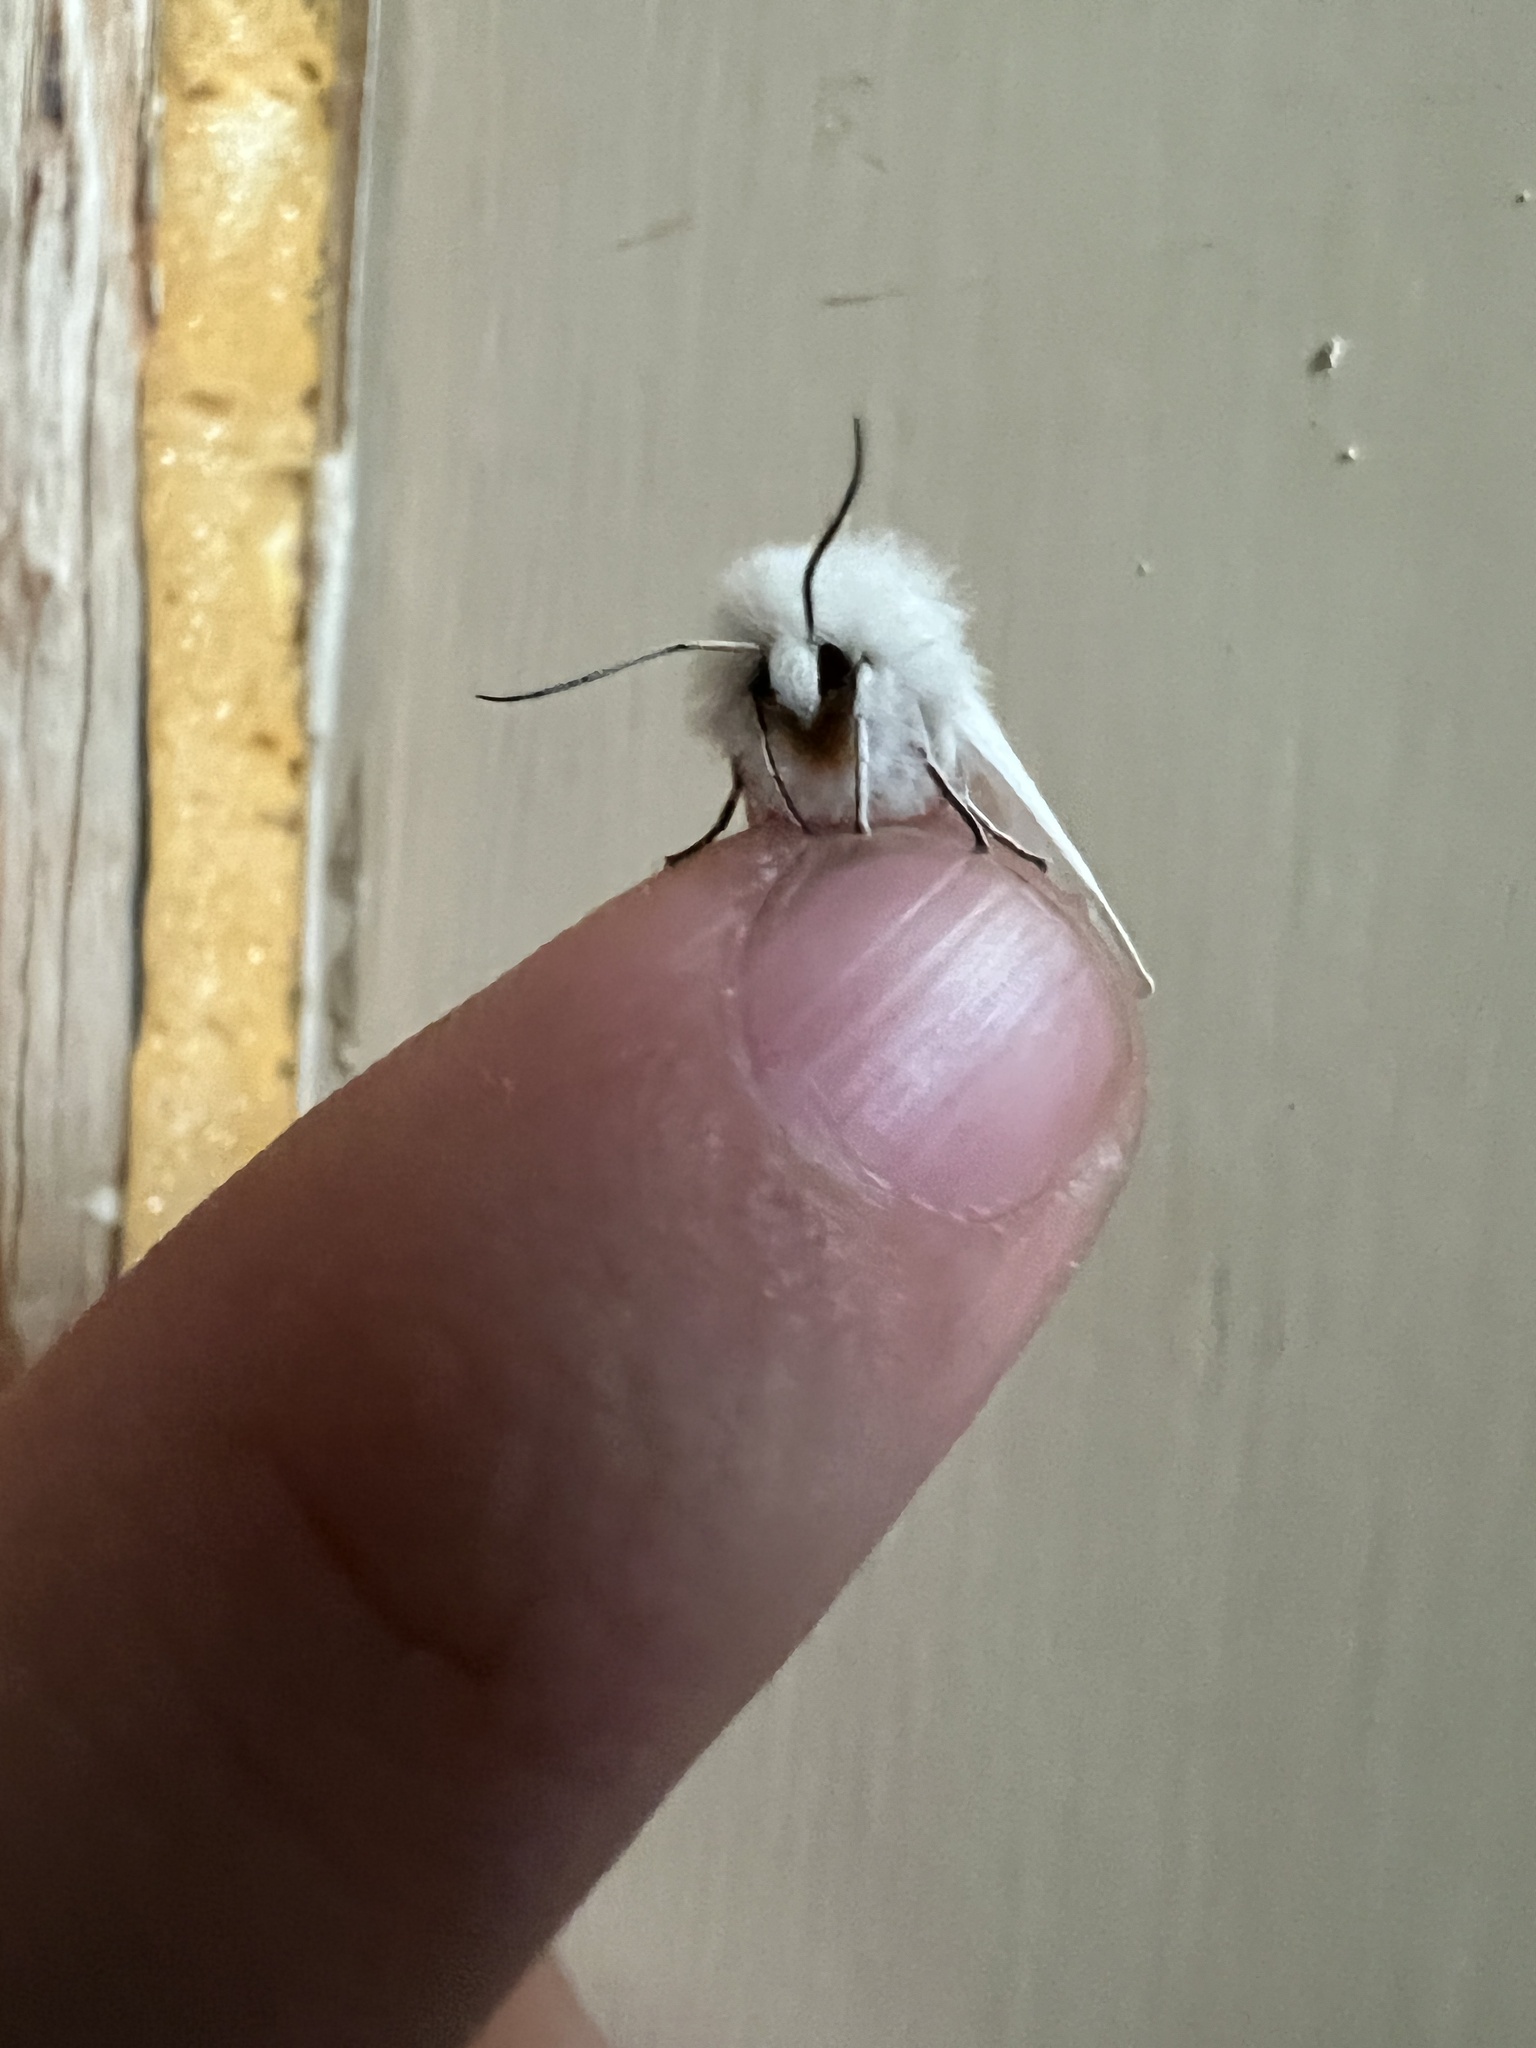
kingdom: Animalia
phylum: Arthropoda
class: Insecta
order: Lepidoptera
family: Erebidae
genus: Spilosoma
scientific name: Spilosoma congrua
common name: Agreeable tiger moth
